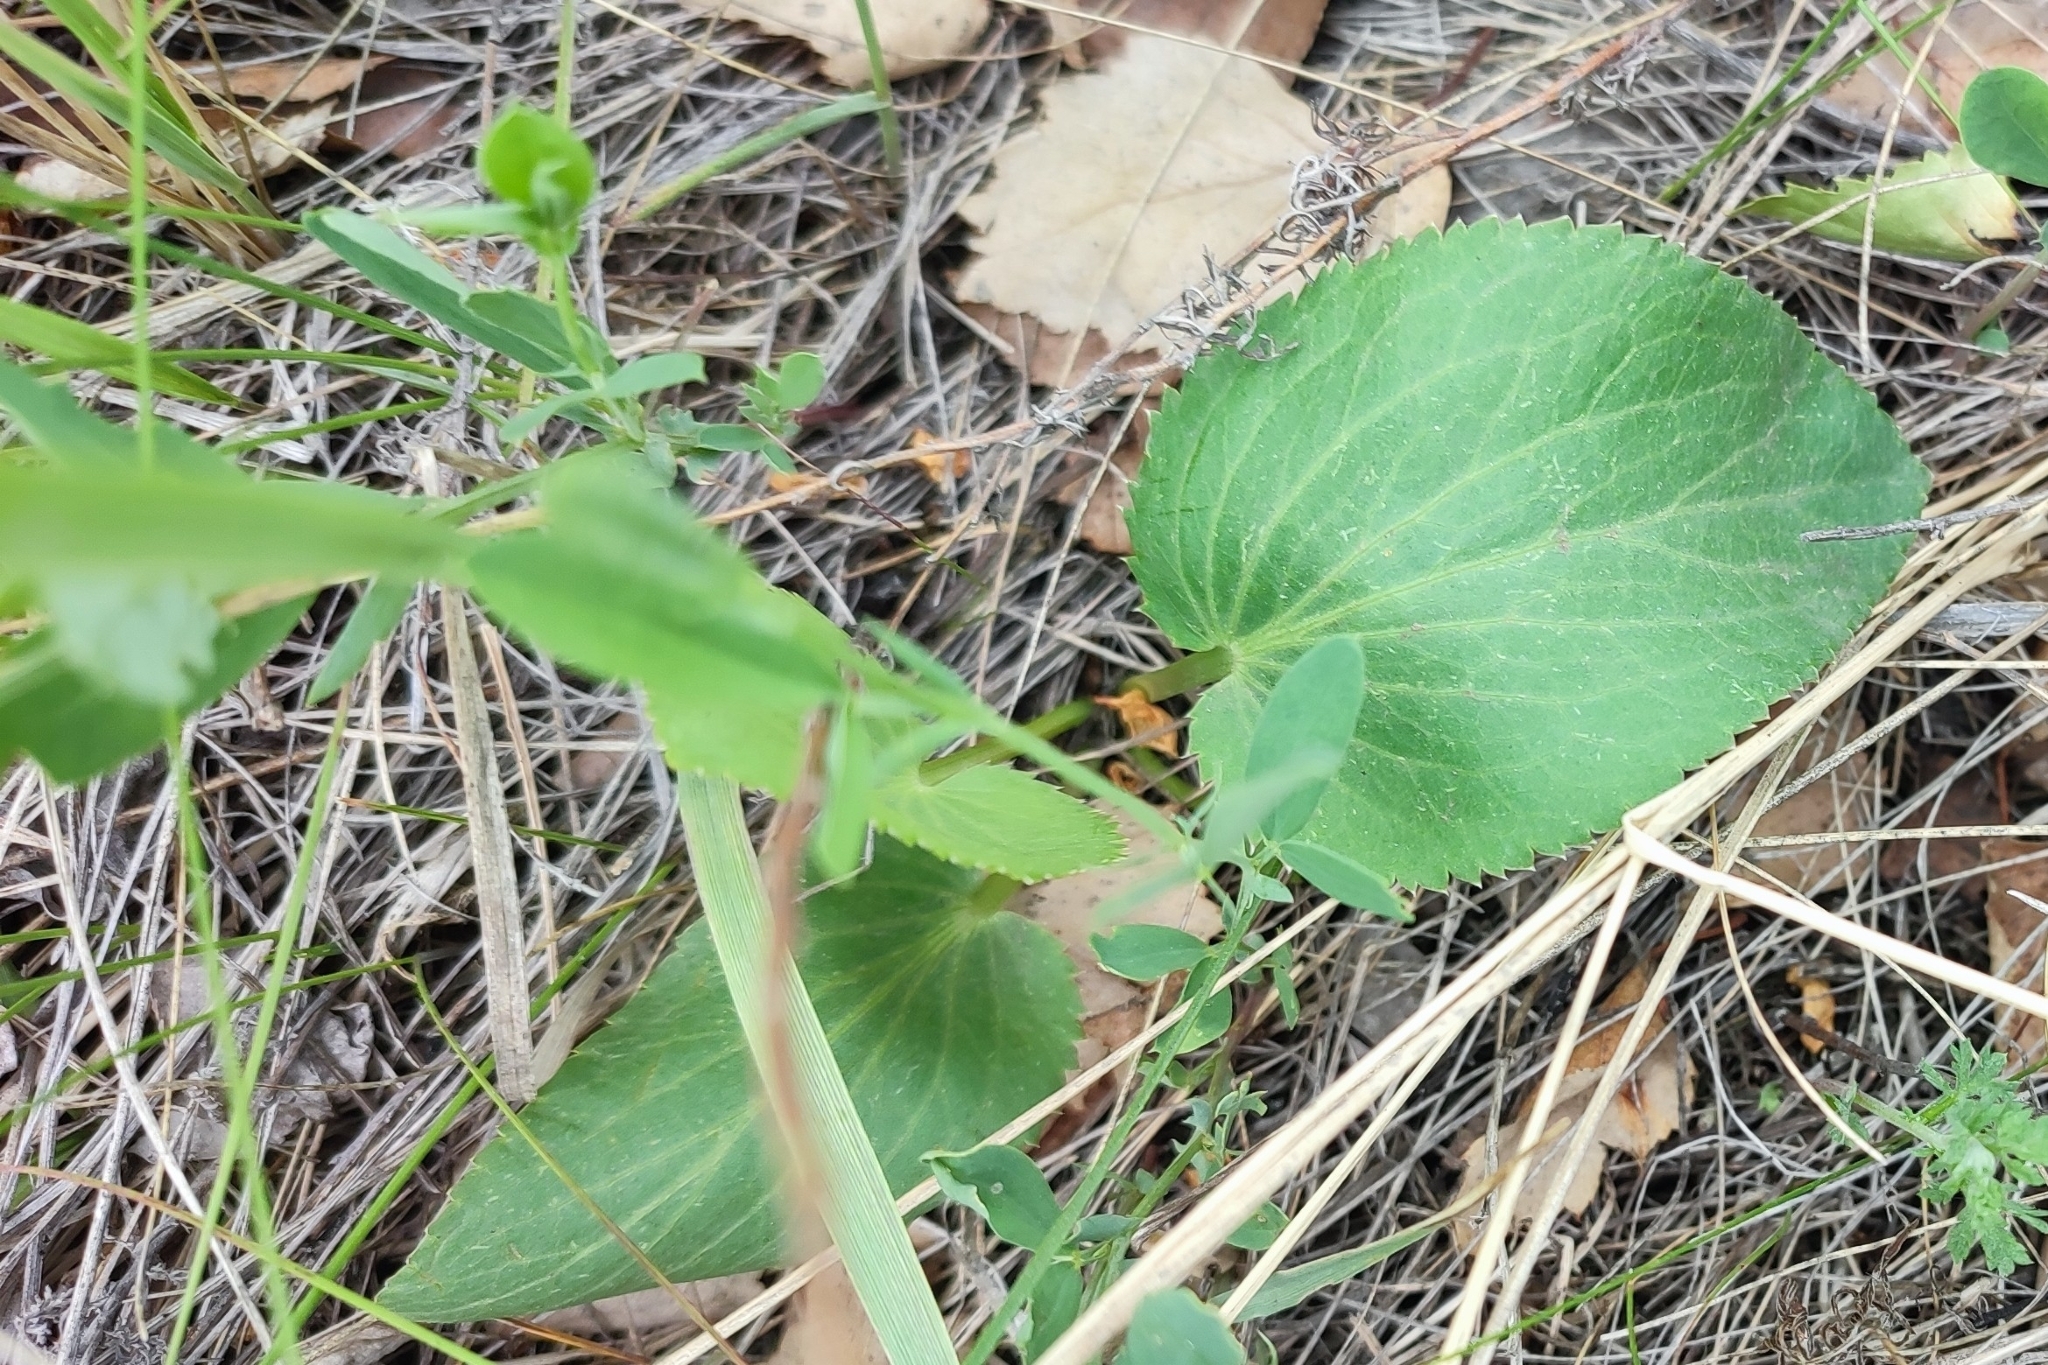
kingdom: Plantae
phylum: Tracheophyta
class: Magnoliopsida
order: Apiales
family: Apiaceae
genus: Eryngium
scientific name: Eryngium planum
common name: Blue eryngo
